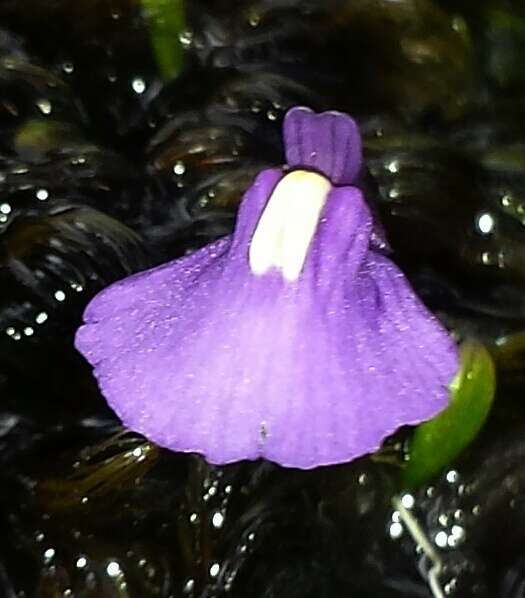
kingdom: Plantae
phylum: Tracheophyta
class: Magnoliopsida
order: Lamiales
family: Lentibulariaceae
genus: Utricularia
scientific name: Utricularia dichotoma
